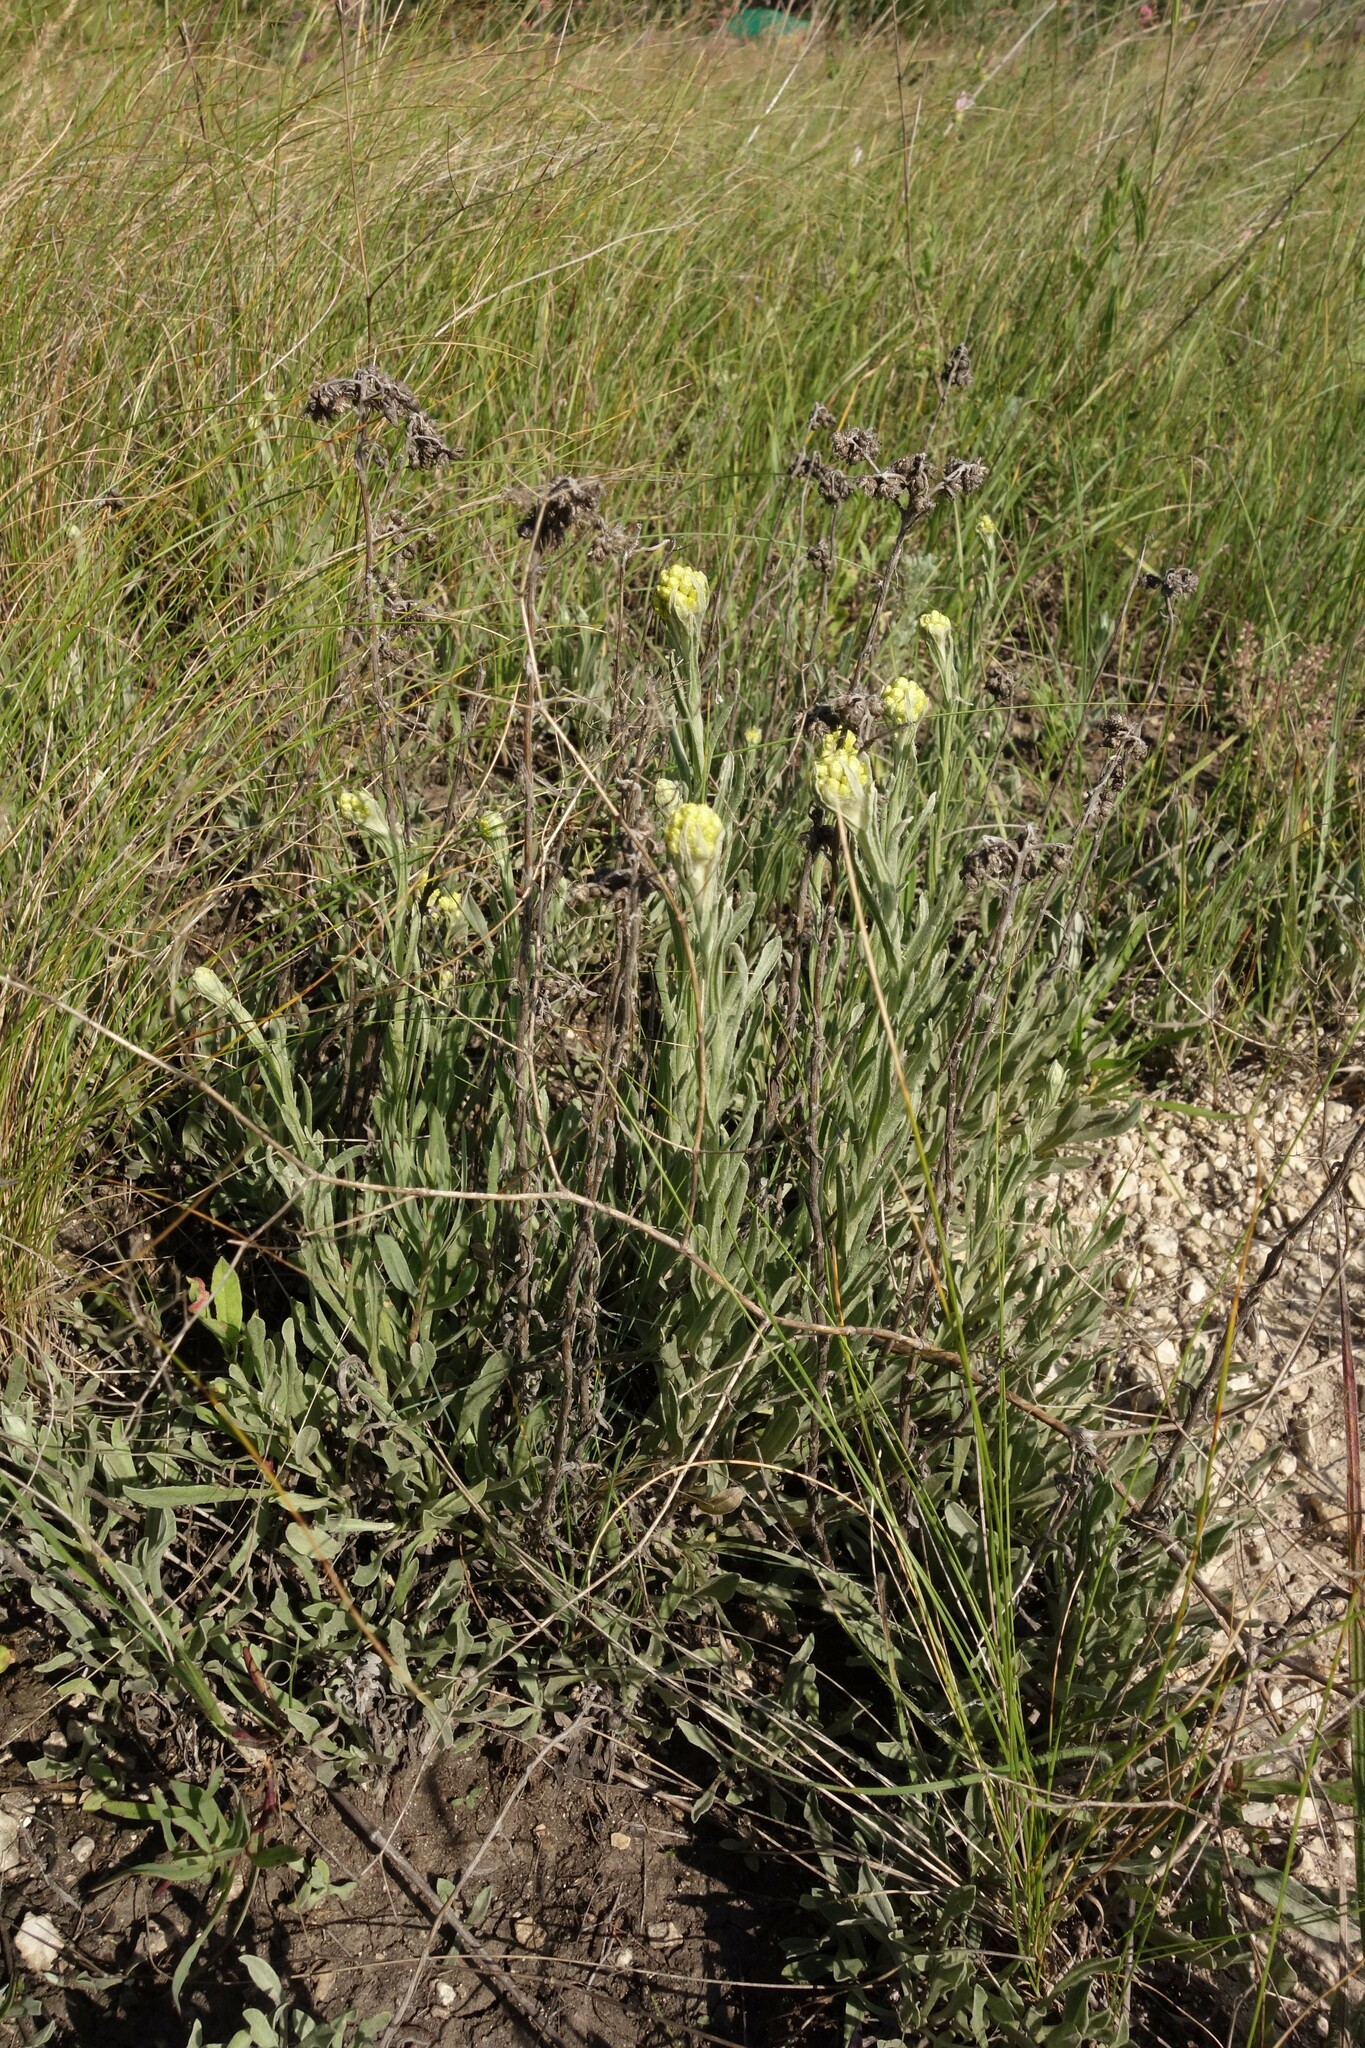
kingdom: Plantae
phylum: Tracheophyta
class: Magnoliopsida
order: Asterales
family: Asteraceae
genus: Helichrysum
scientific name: Helichrysum arenarium
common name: Strawflower
